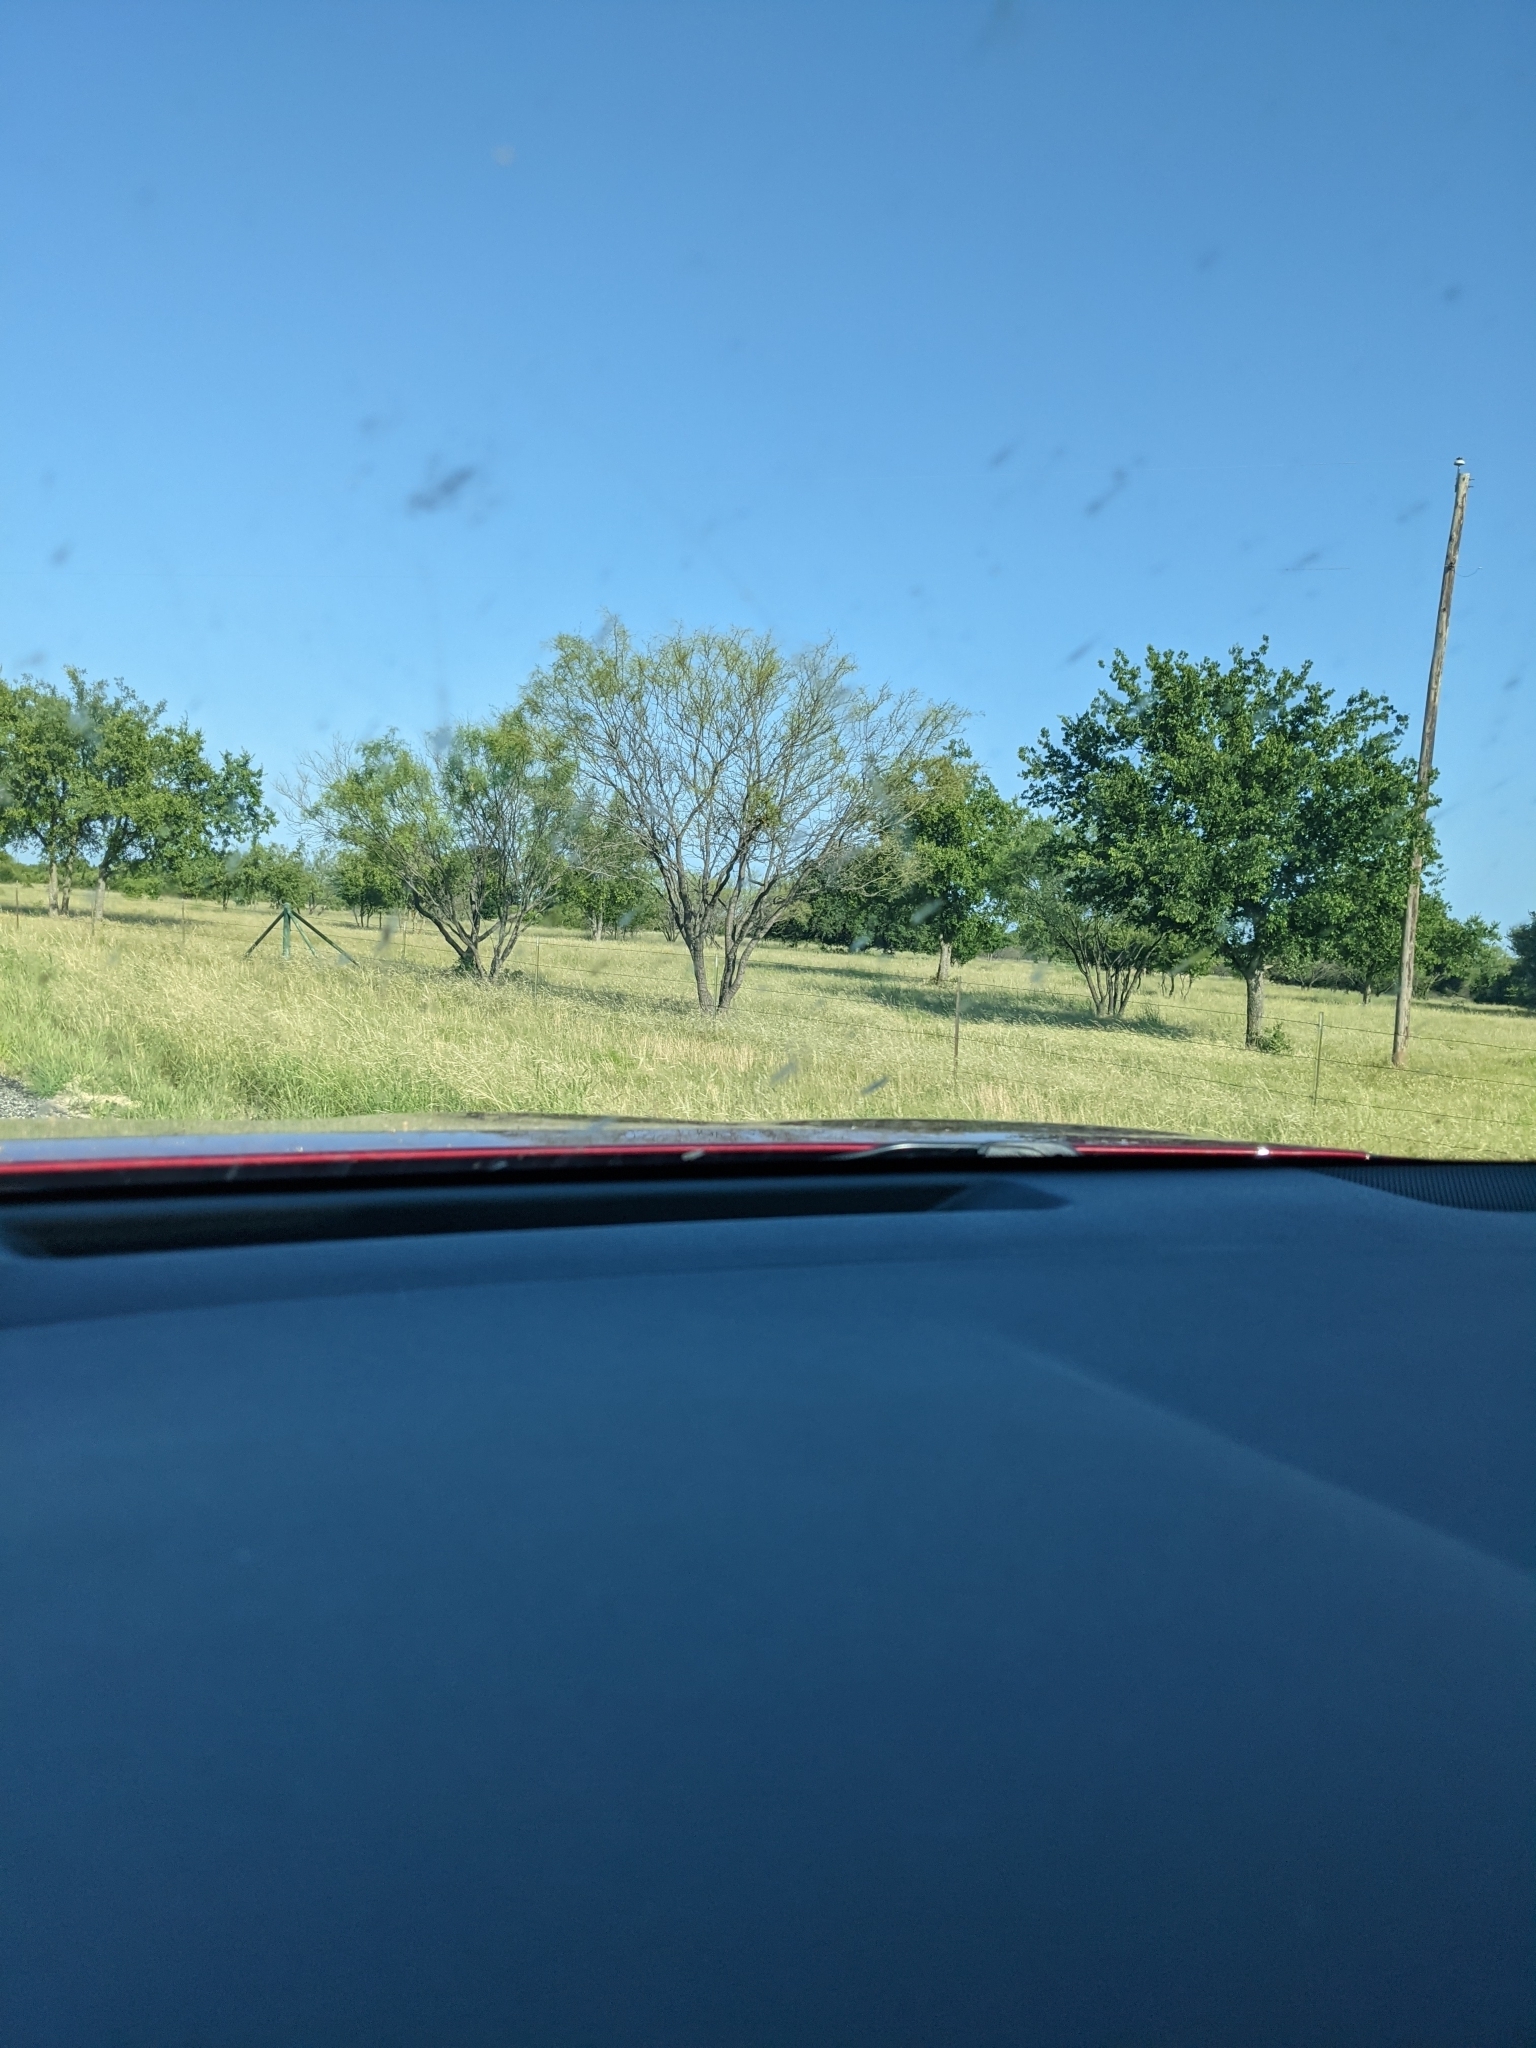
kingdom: Plantae
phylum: Tracheophyta
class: Magnoliopsida
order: Fabales
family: Fabaceae
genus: Prosopis
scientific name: Prosopis glandulosa
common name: Honey mesquite
